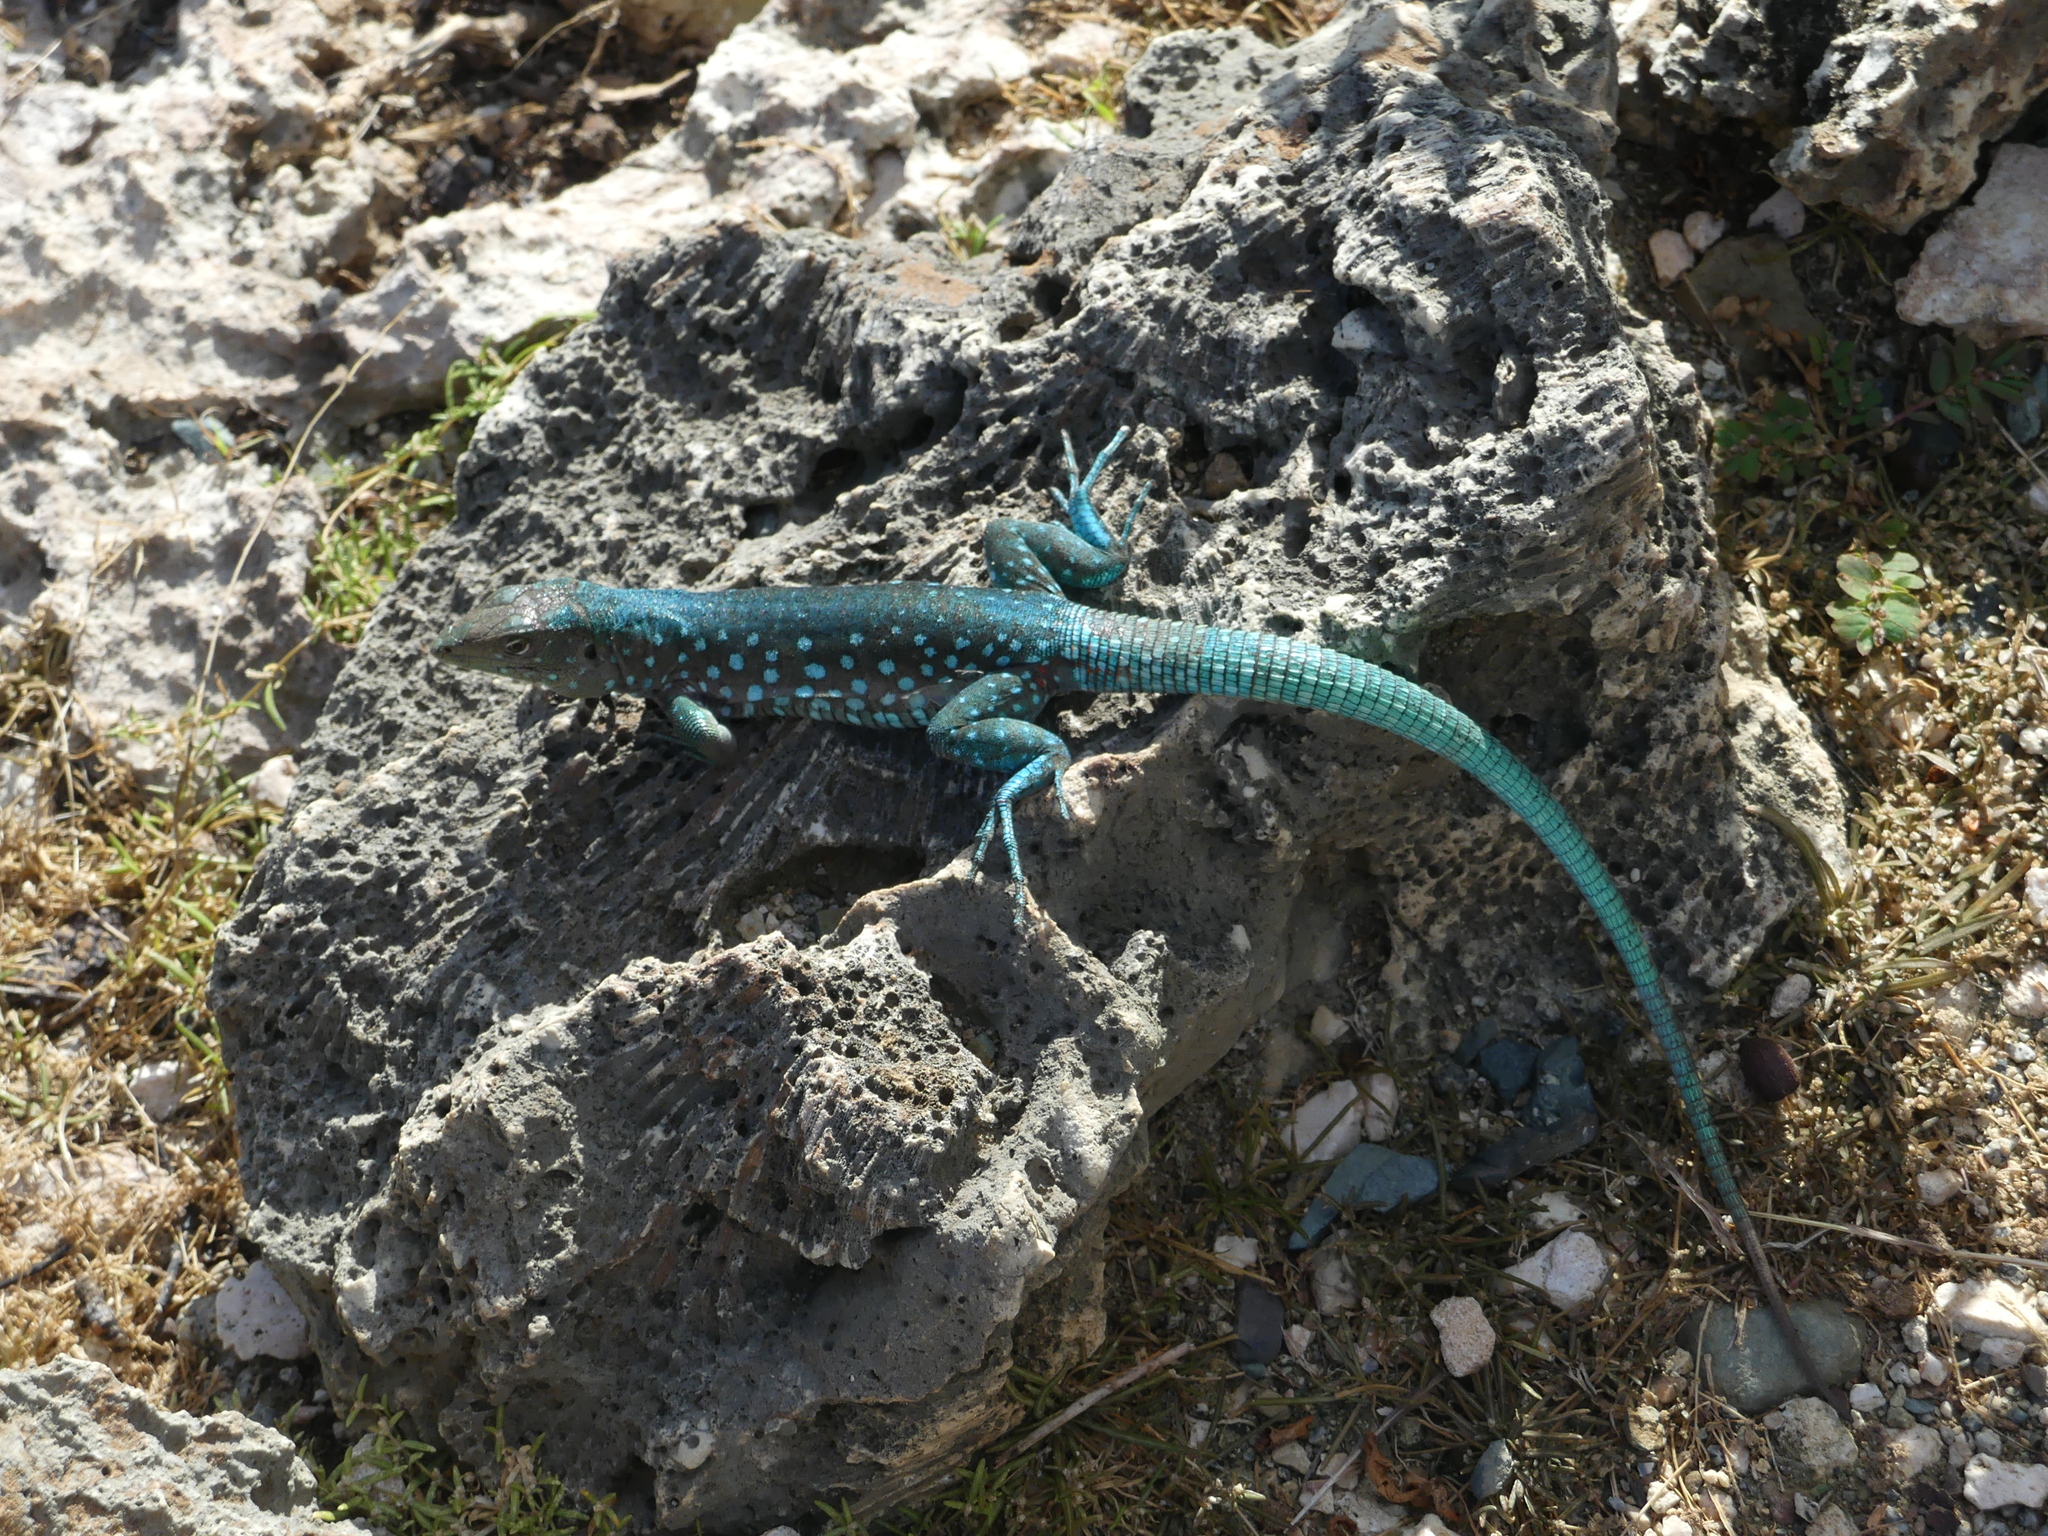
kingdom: Animalia
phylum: Chordata
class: Squamata
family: Teiidae
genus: Cnemidophorus
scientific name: Cnemidophorus arubensis
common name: Aruba whiptail
